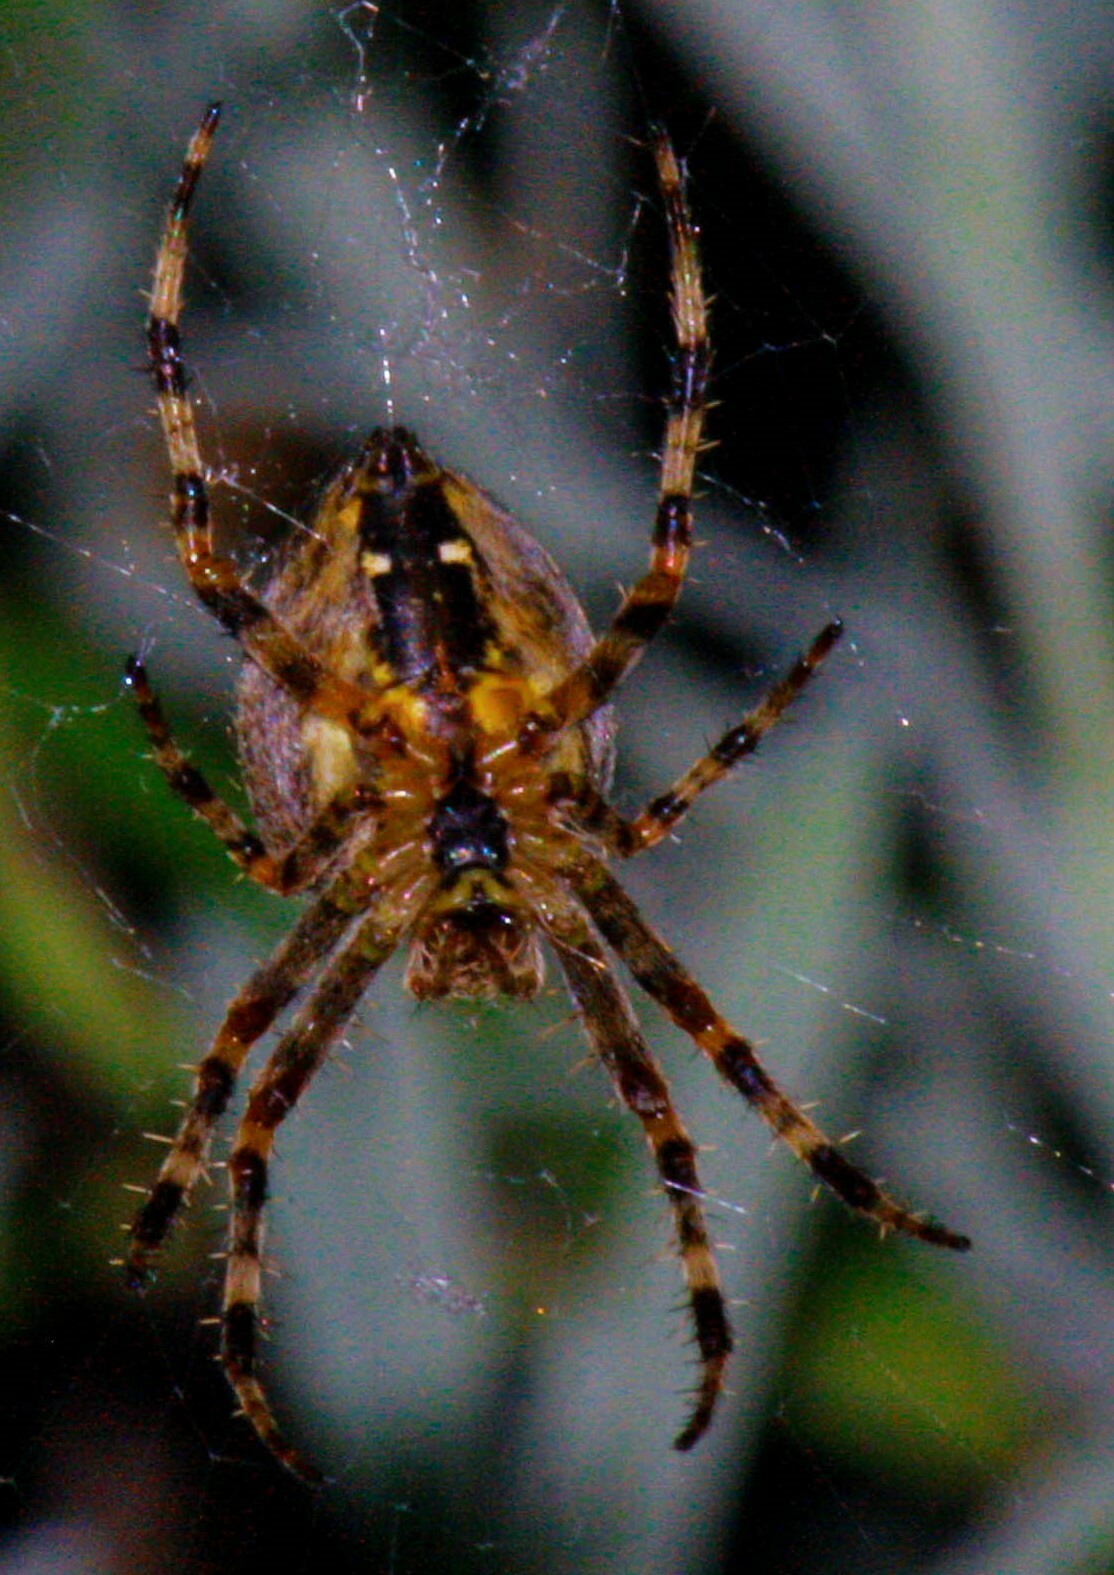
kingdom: Animalia
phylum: Arthropoda
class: Arachnida
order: Araneae
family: Araneidae
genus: Araneus
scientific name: Araneus diadematus
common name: Cross orbweaver
